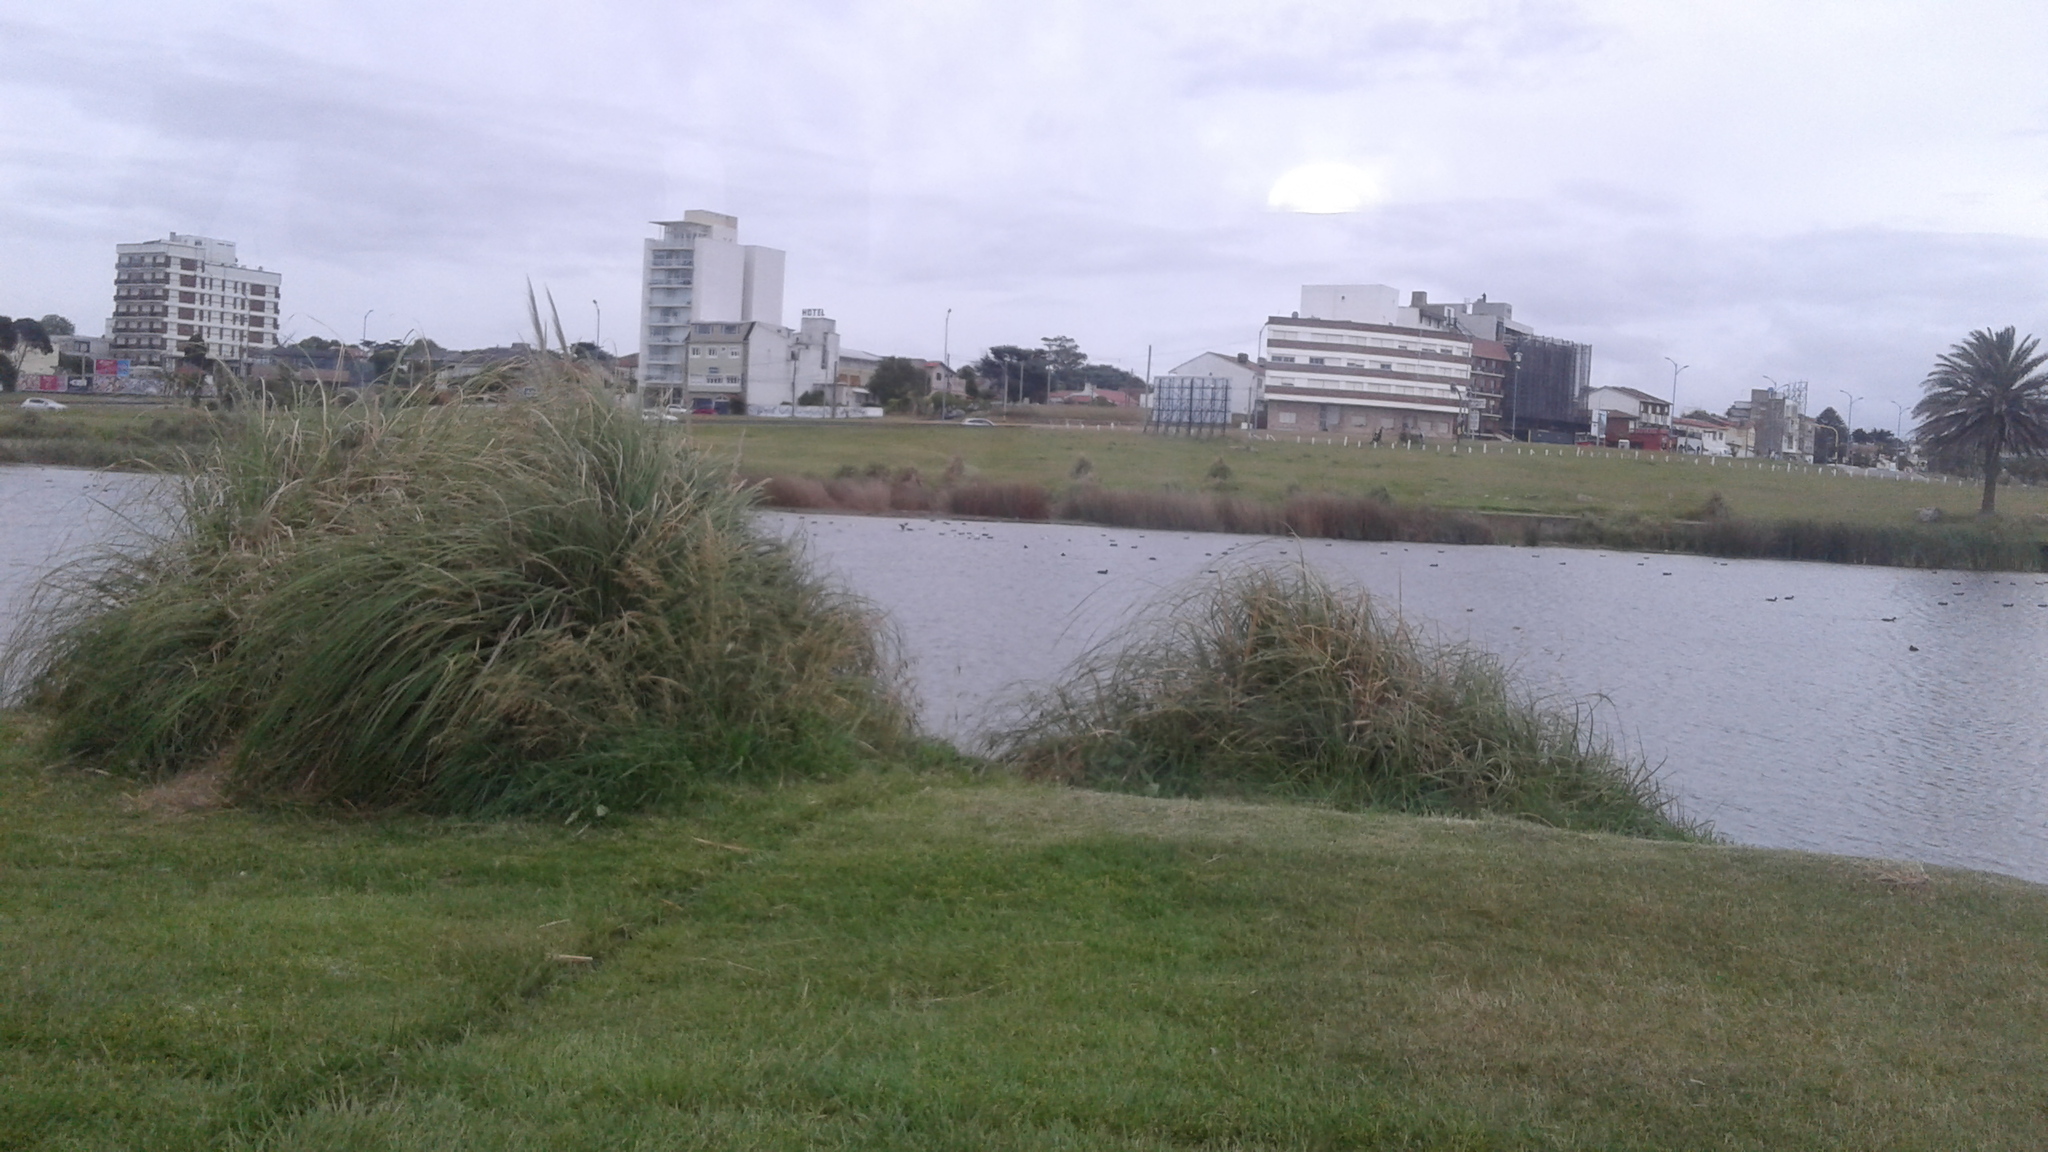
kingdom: Plantae
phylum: Tracheophyta
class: Liliopsida
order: Poales
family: Poaceae
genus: Cortaderia
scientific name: Cortaderia selloana
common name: Uruguayan pampas grass
